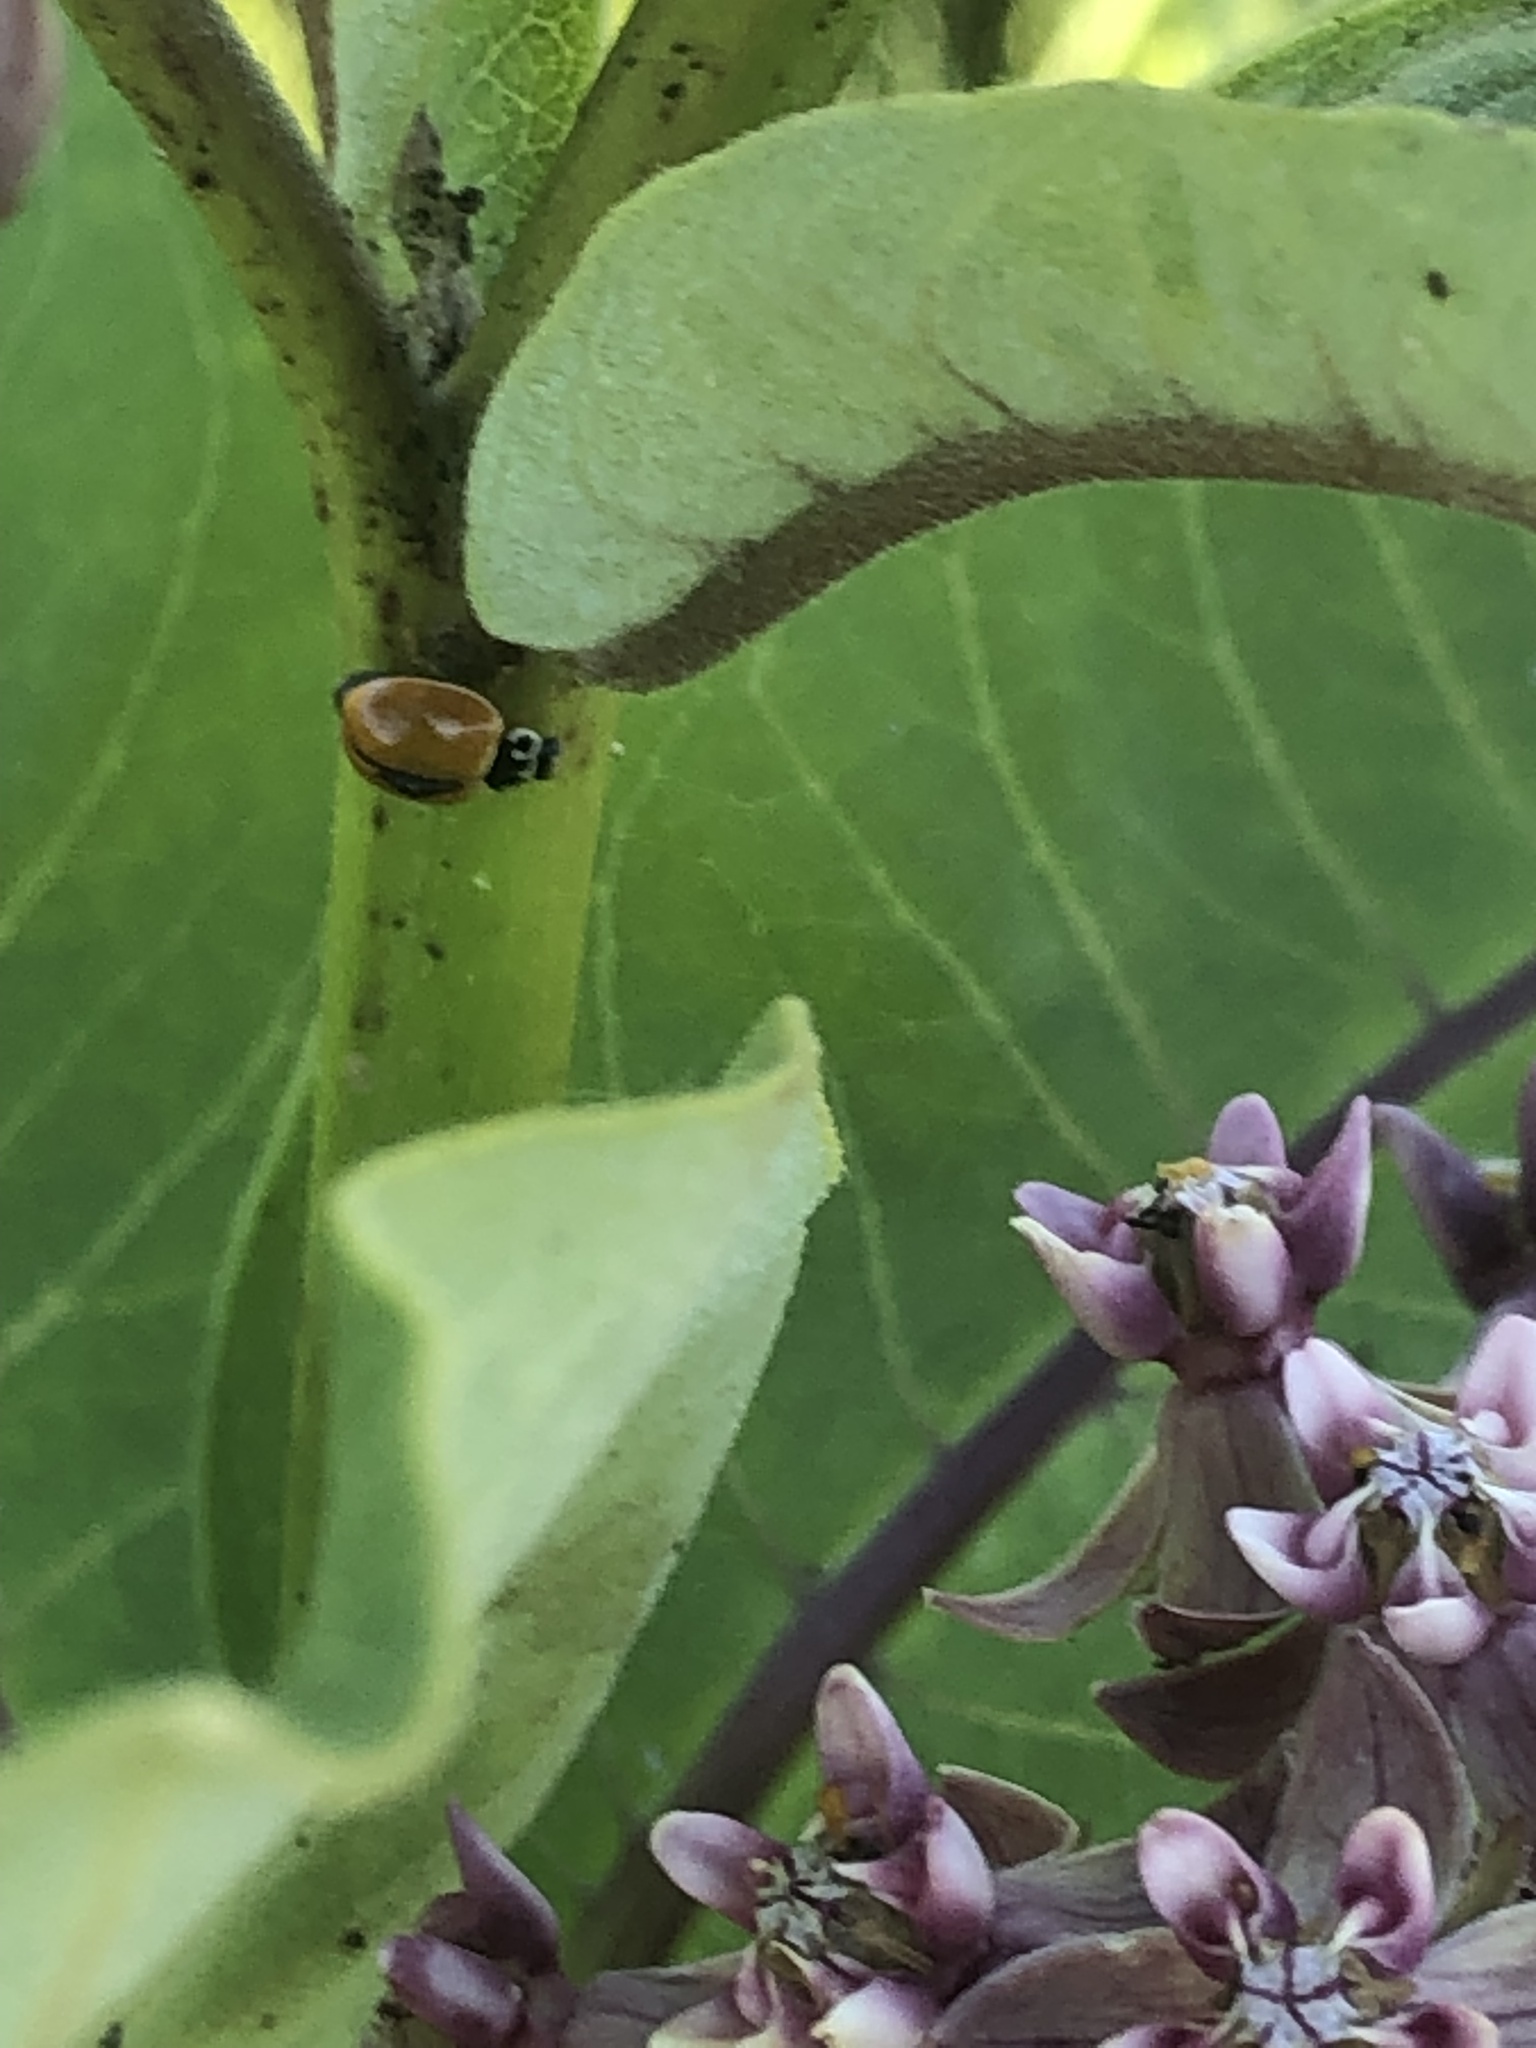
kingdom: Animalia
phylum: Arthropoda
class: Insecta
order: Coleoptera
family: Coccinellidae
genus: Cycloneda
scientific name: Cycloneda munda
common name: Polished lady beetle
